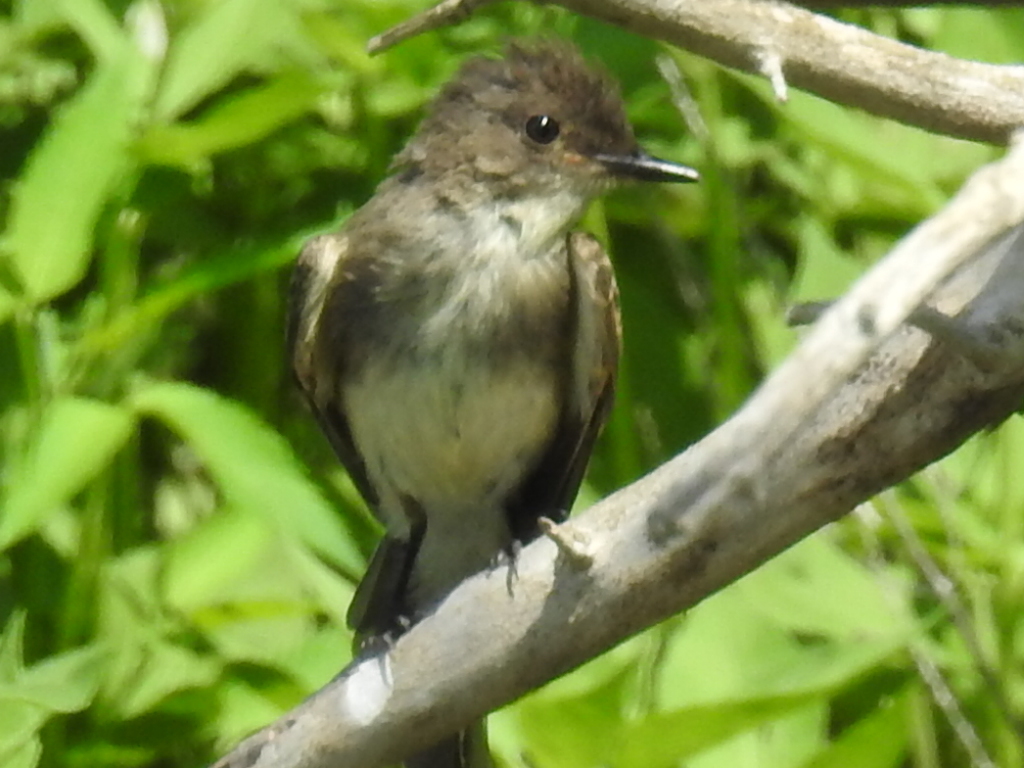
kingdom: Animalia
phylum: Chordata
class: Aves
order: Passeriformes
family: Tyrannidae
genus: Sayornis
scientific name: Sayornis phoebe
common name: Eastern phoebe
